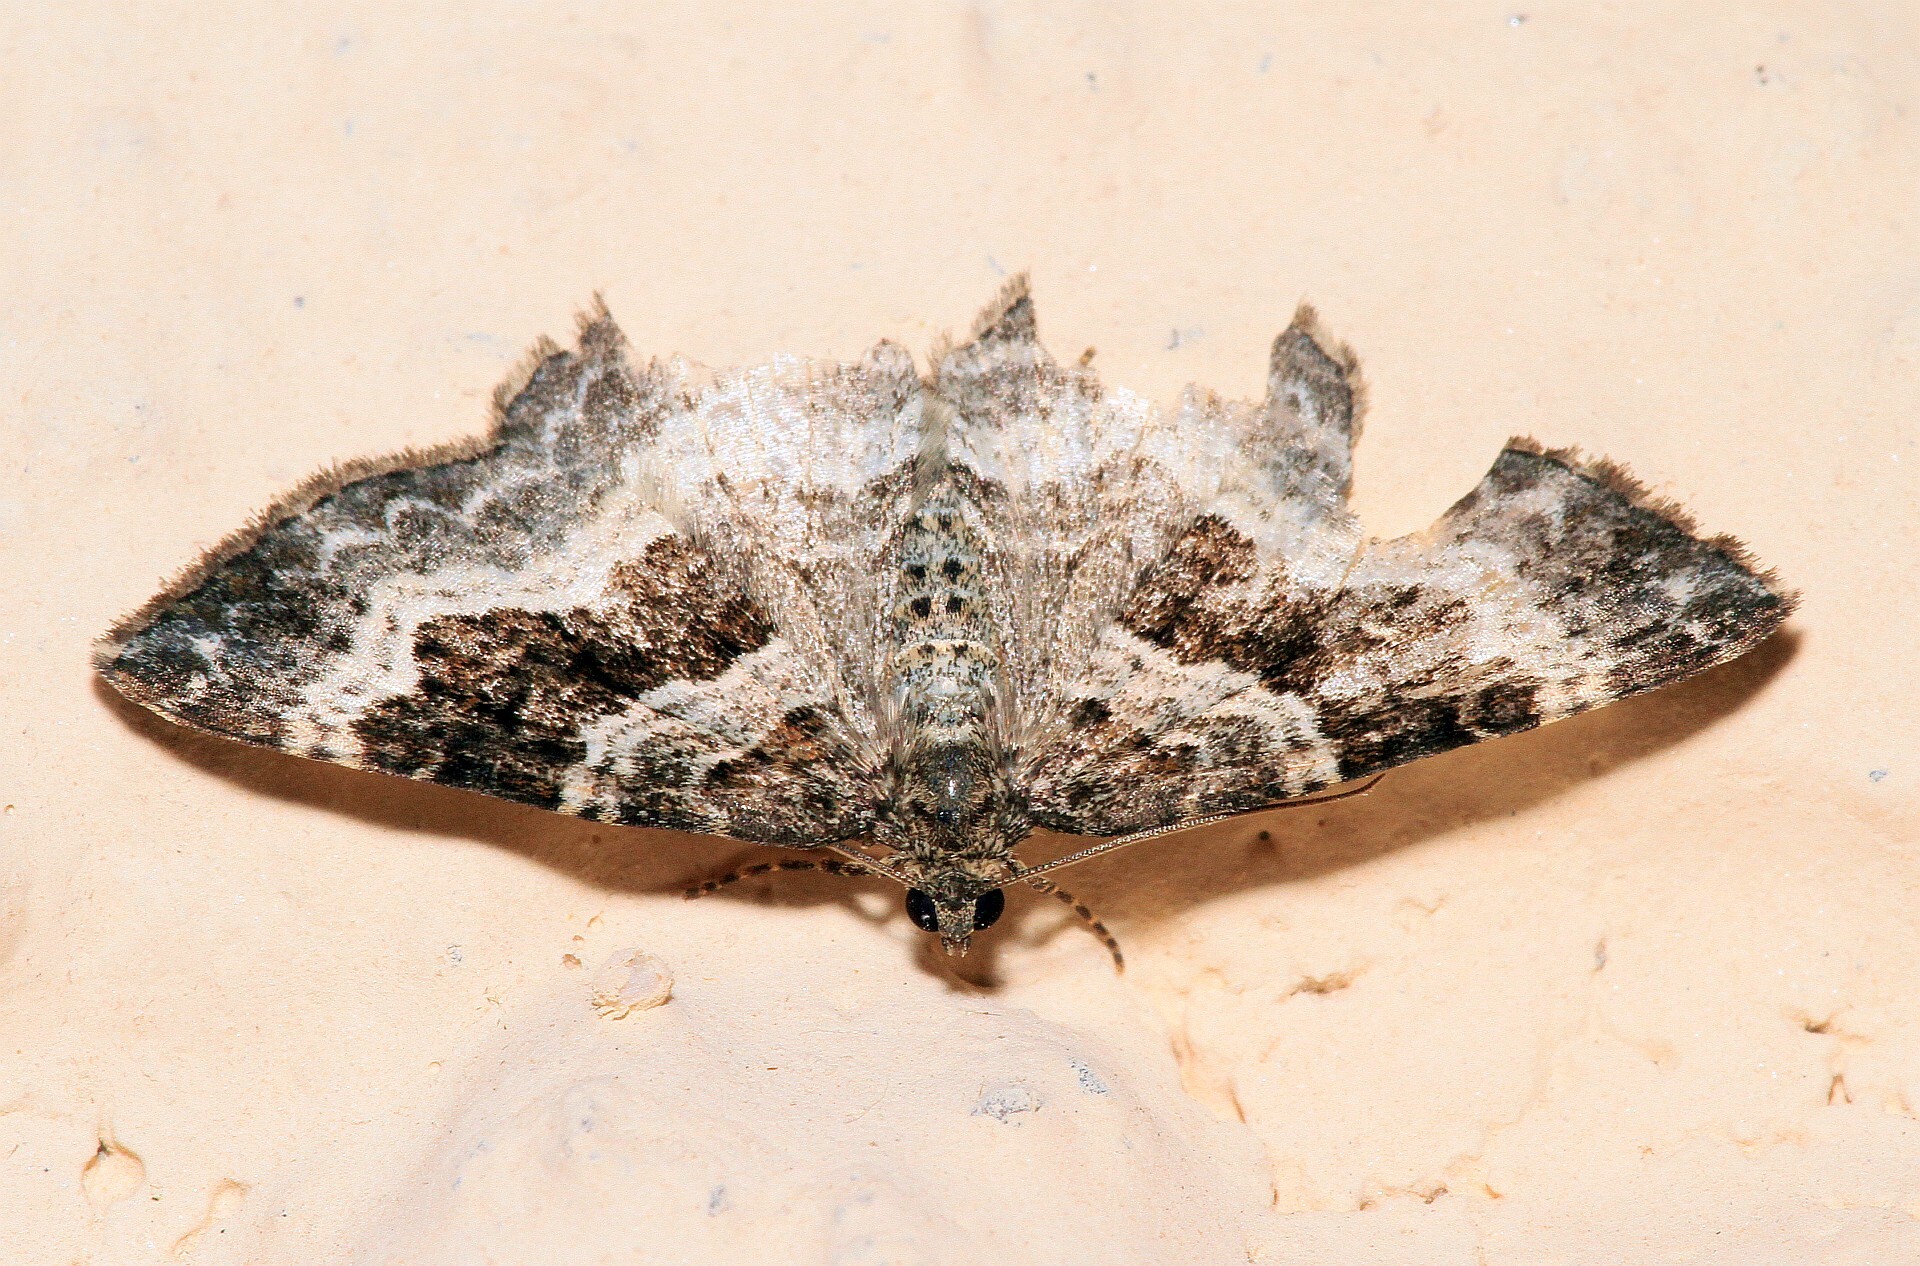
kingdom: Animalia
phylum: Arthropoda
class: Insecta
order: Lepidoptera
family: Geometridae
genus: Epirrhoe
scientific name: Epirrhoe alternata
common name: Common carpet
